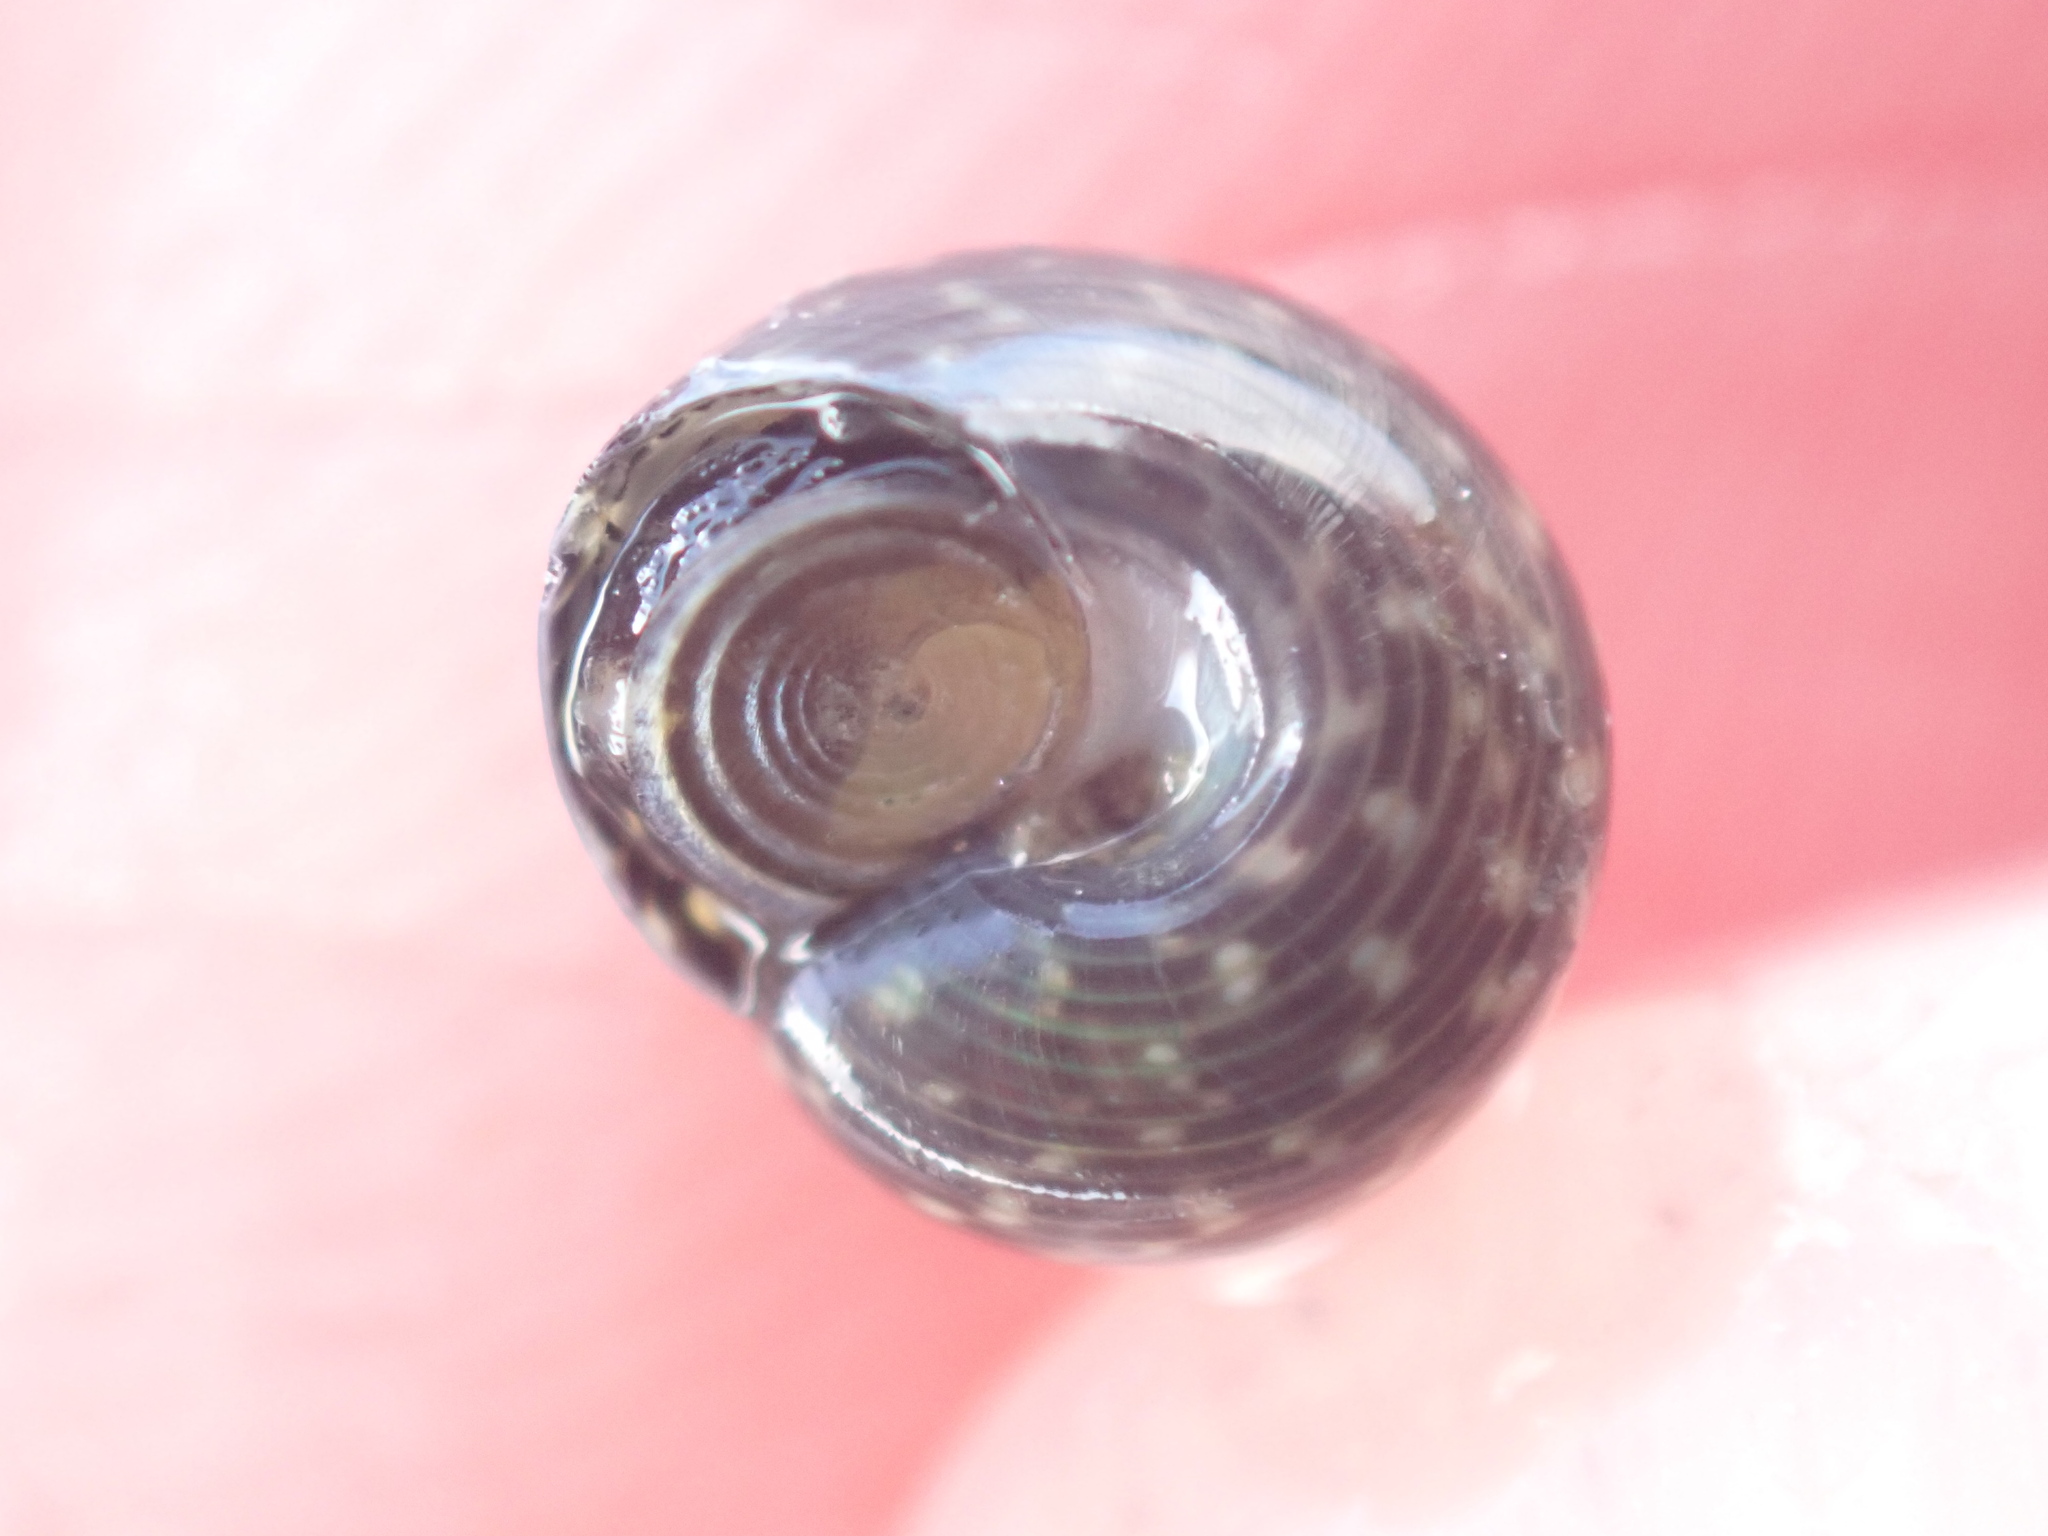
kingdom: Animalia
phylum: Mollusca
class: Gastropoda
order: Trochida
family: Trochidae
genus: Micrelenchus
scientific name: Micrelenchus tessellatus
